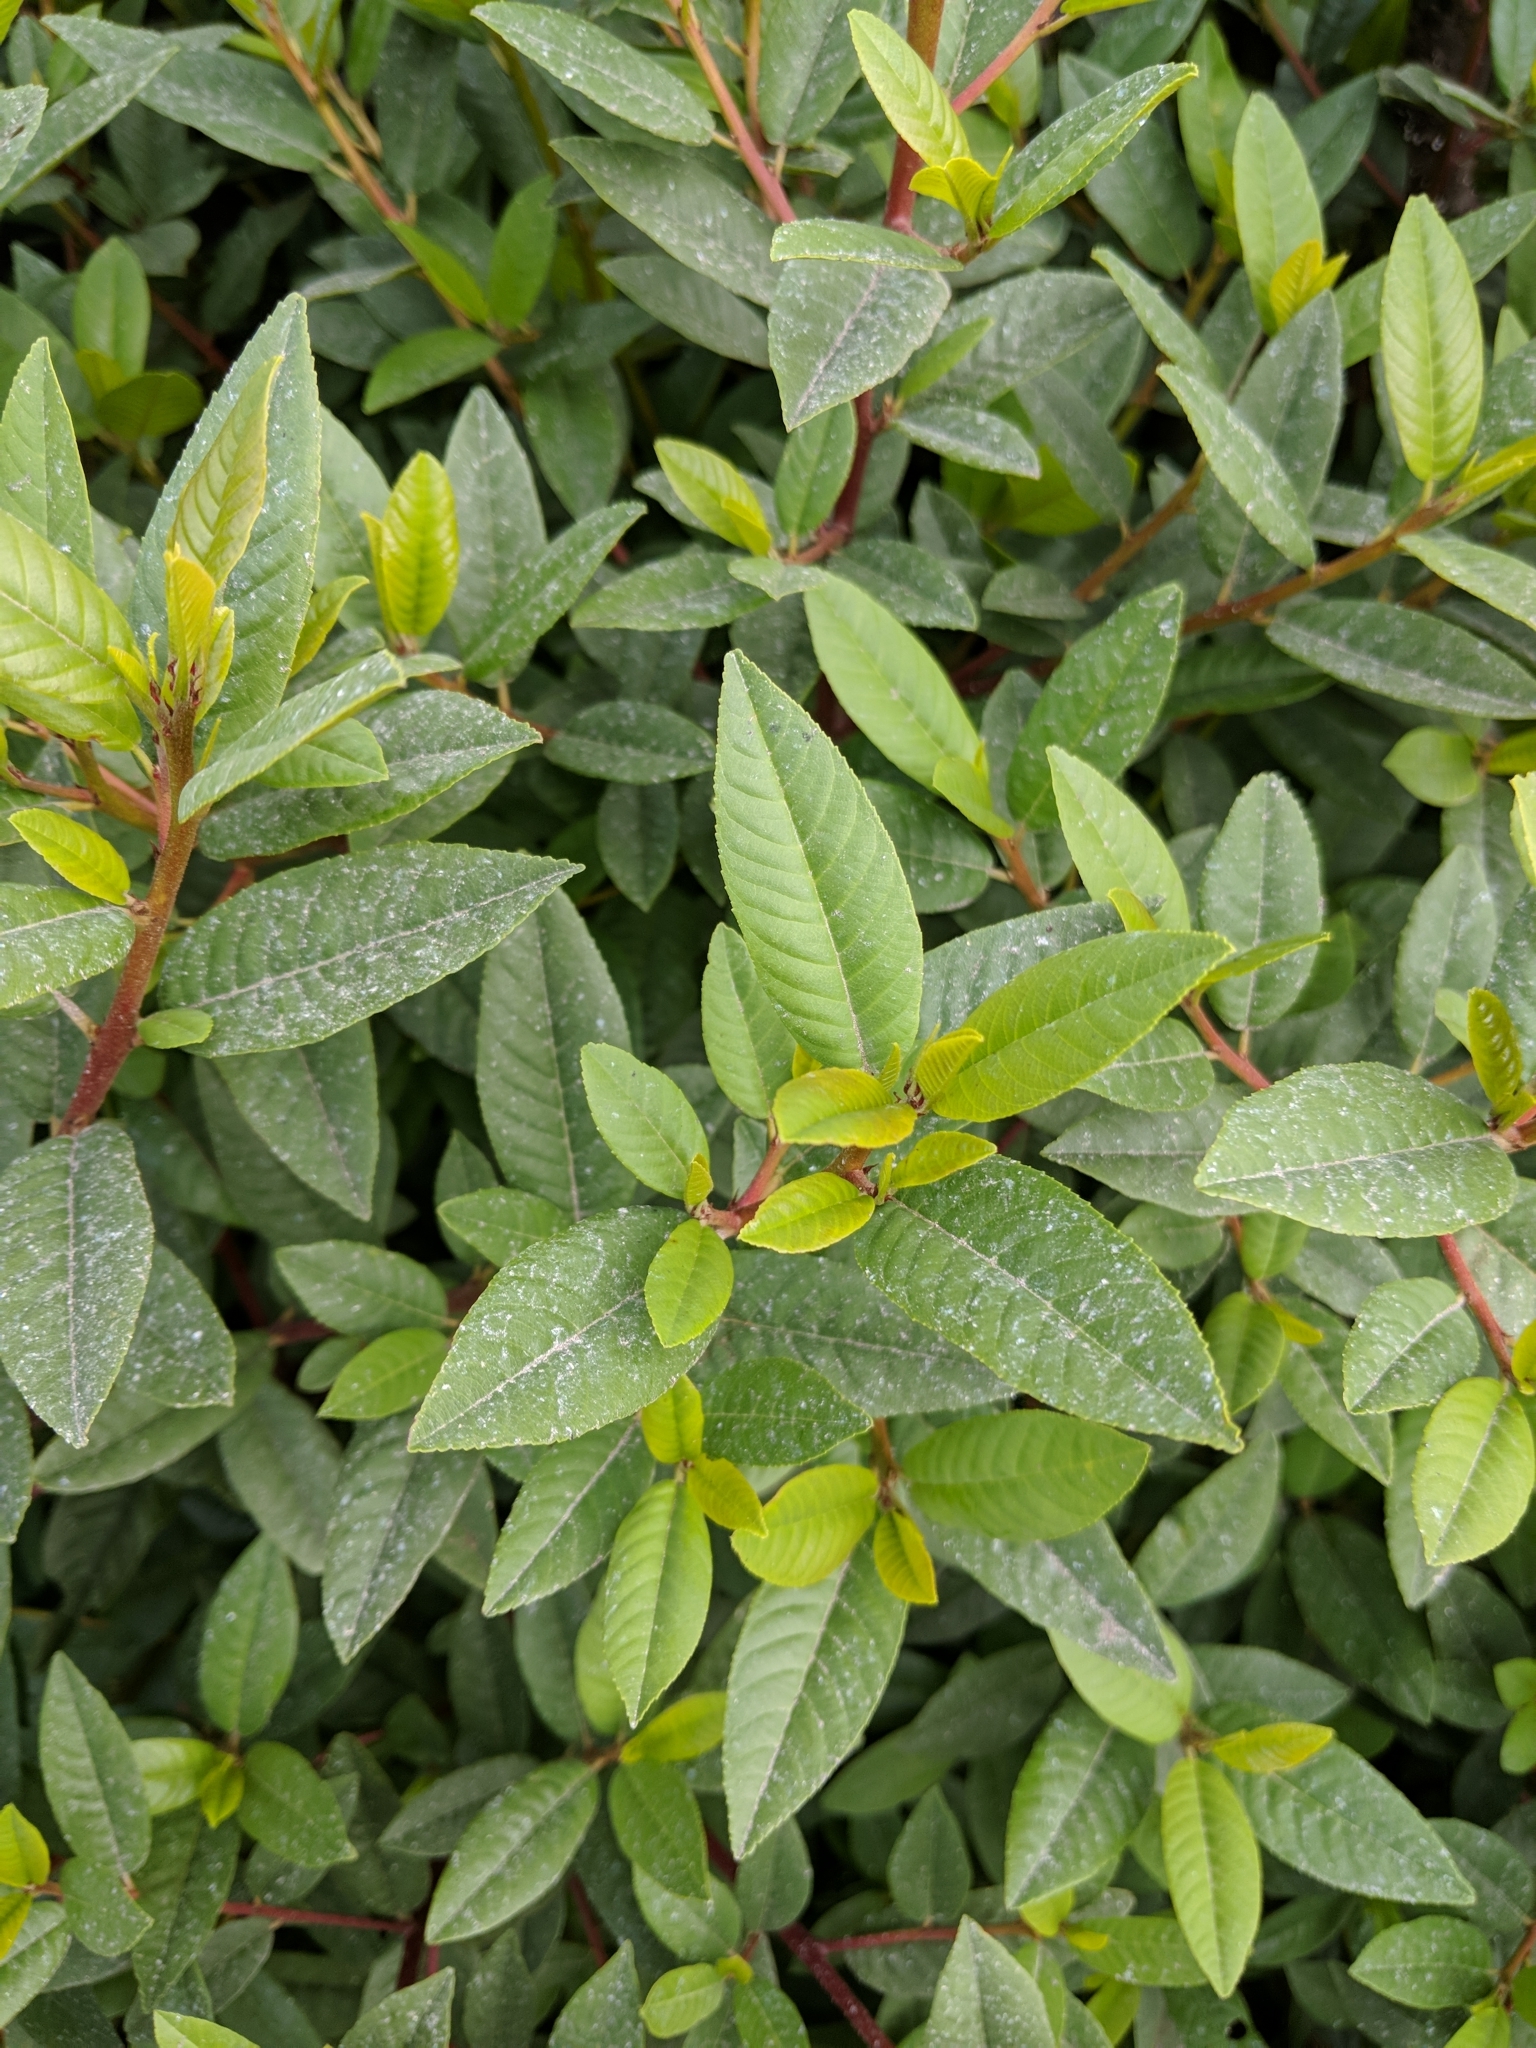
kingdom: Plantae
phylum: Tracheophyta
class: Magnoliopsida
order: Rosales
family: Rhamnaceae
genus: Frangula
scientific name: Frangula californica
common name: California buckthorn
